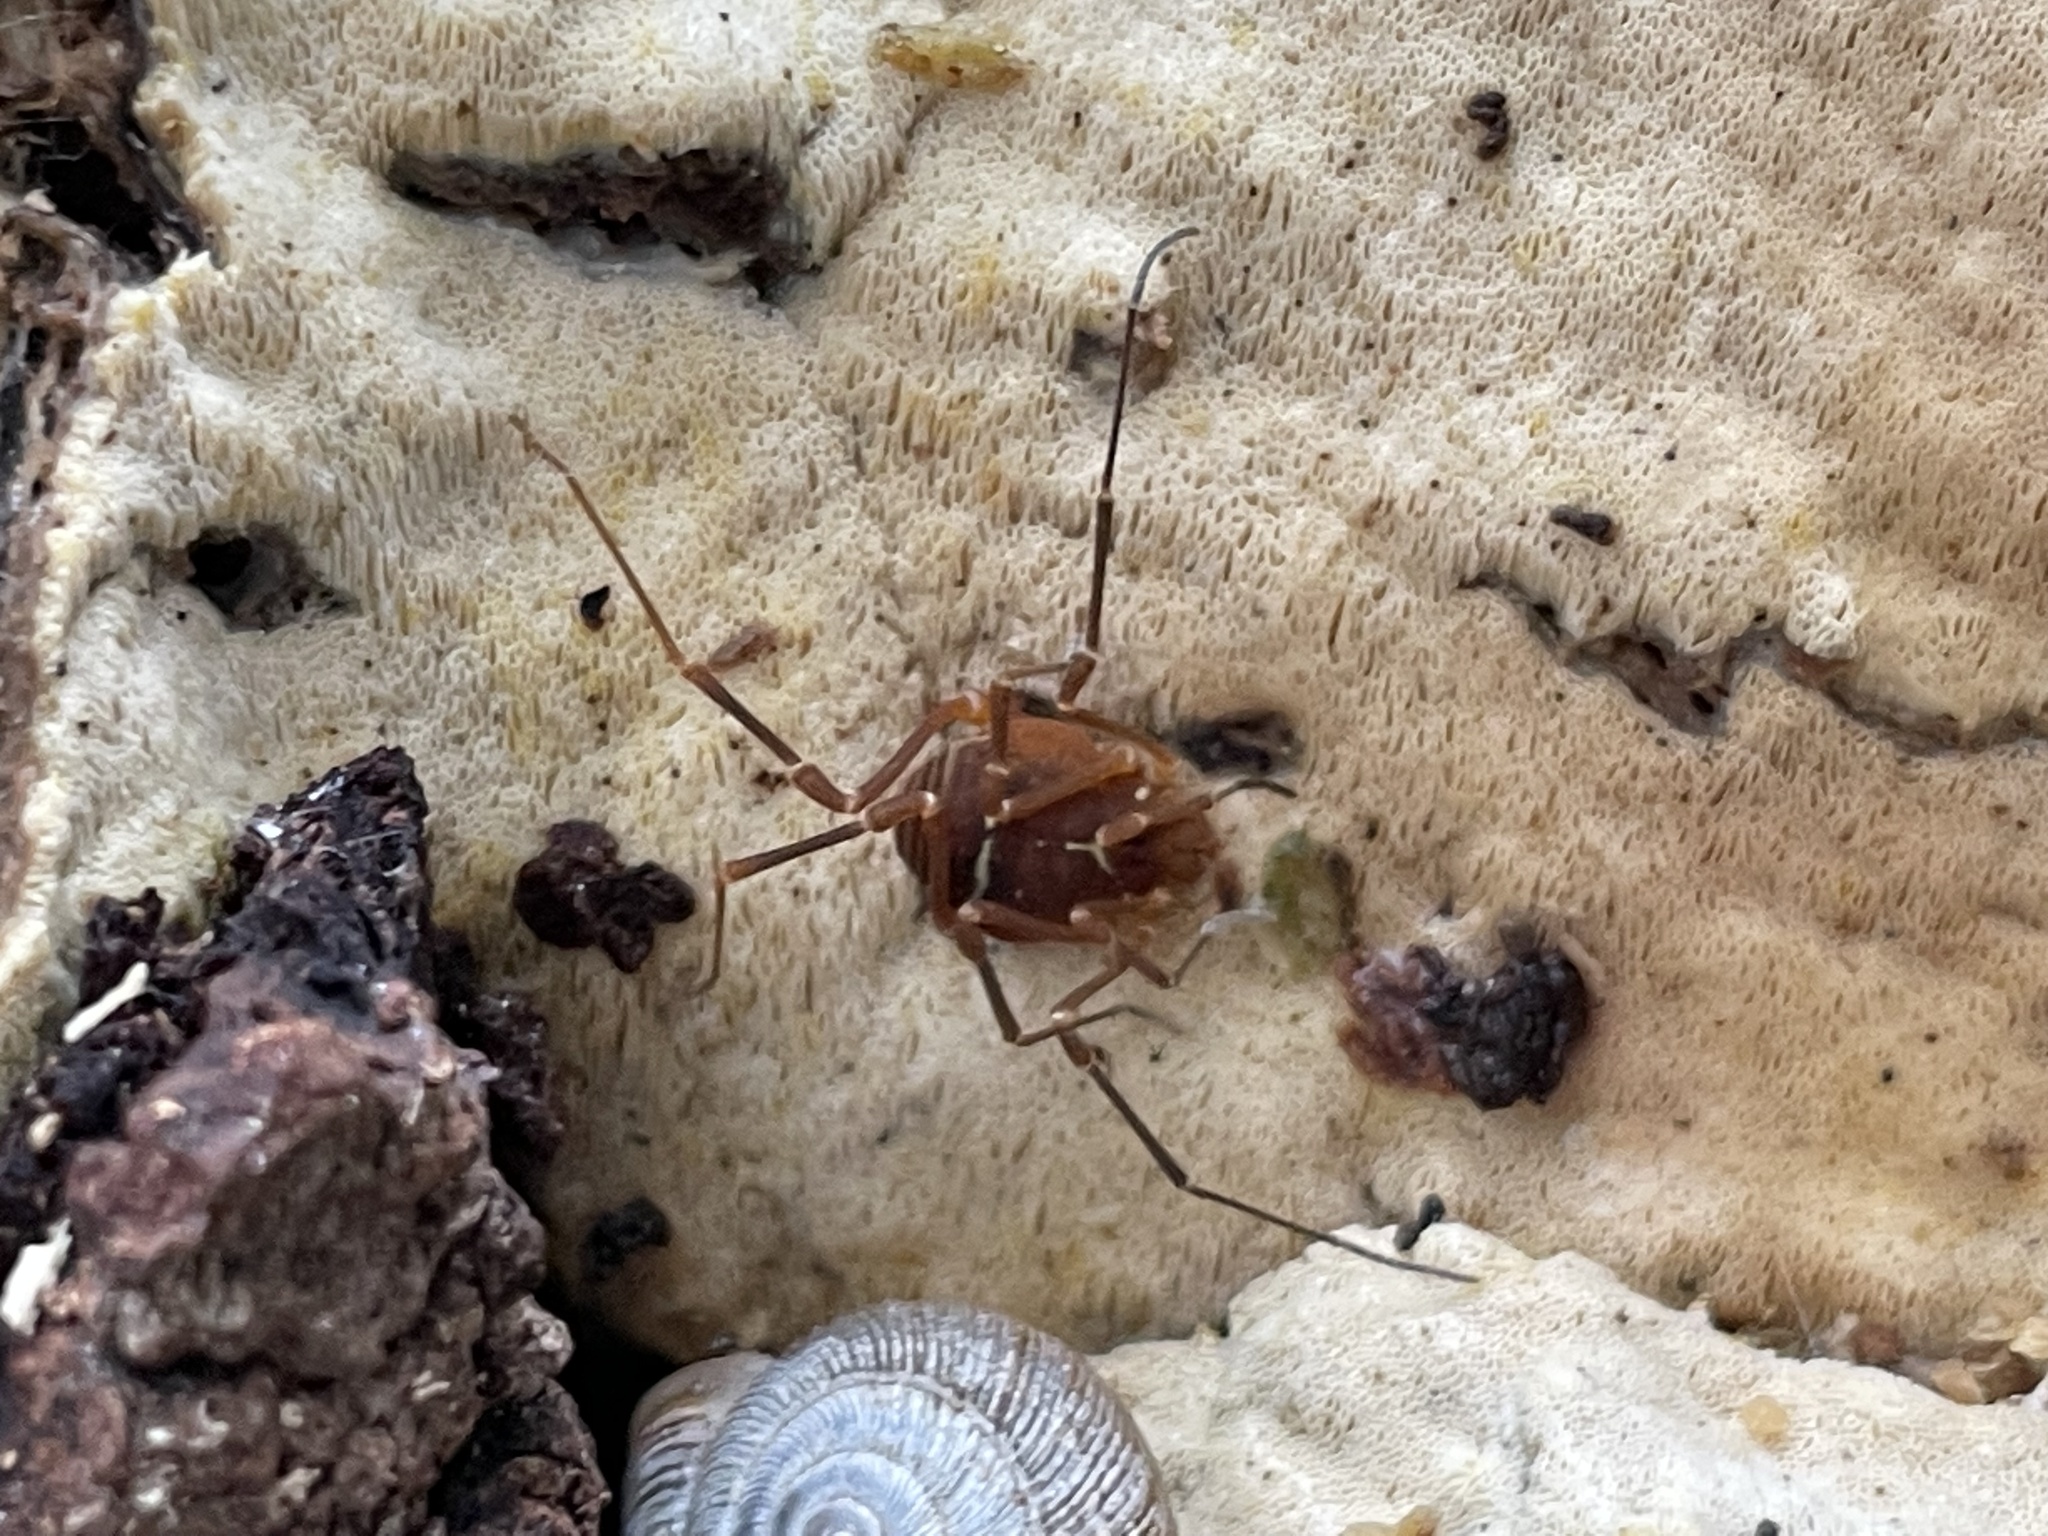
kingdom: Animalia
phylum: Arthropoda
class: Arachnida
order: Opiliones
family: Cosmetidae
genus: Libitioides
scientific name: Libitioides sayi
